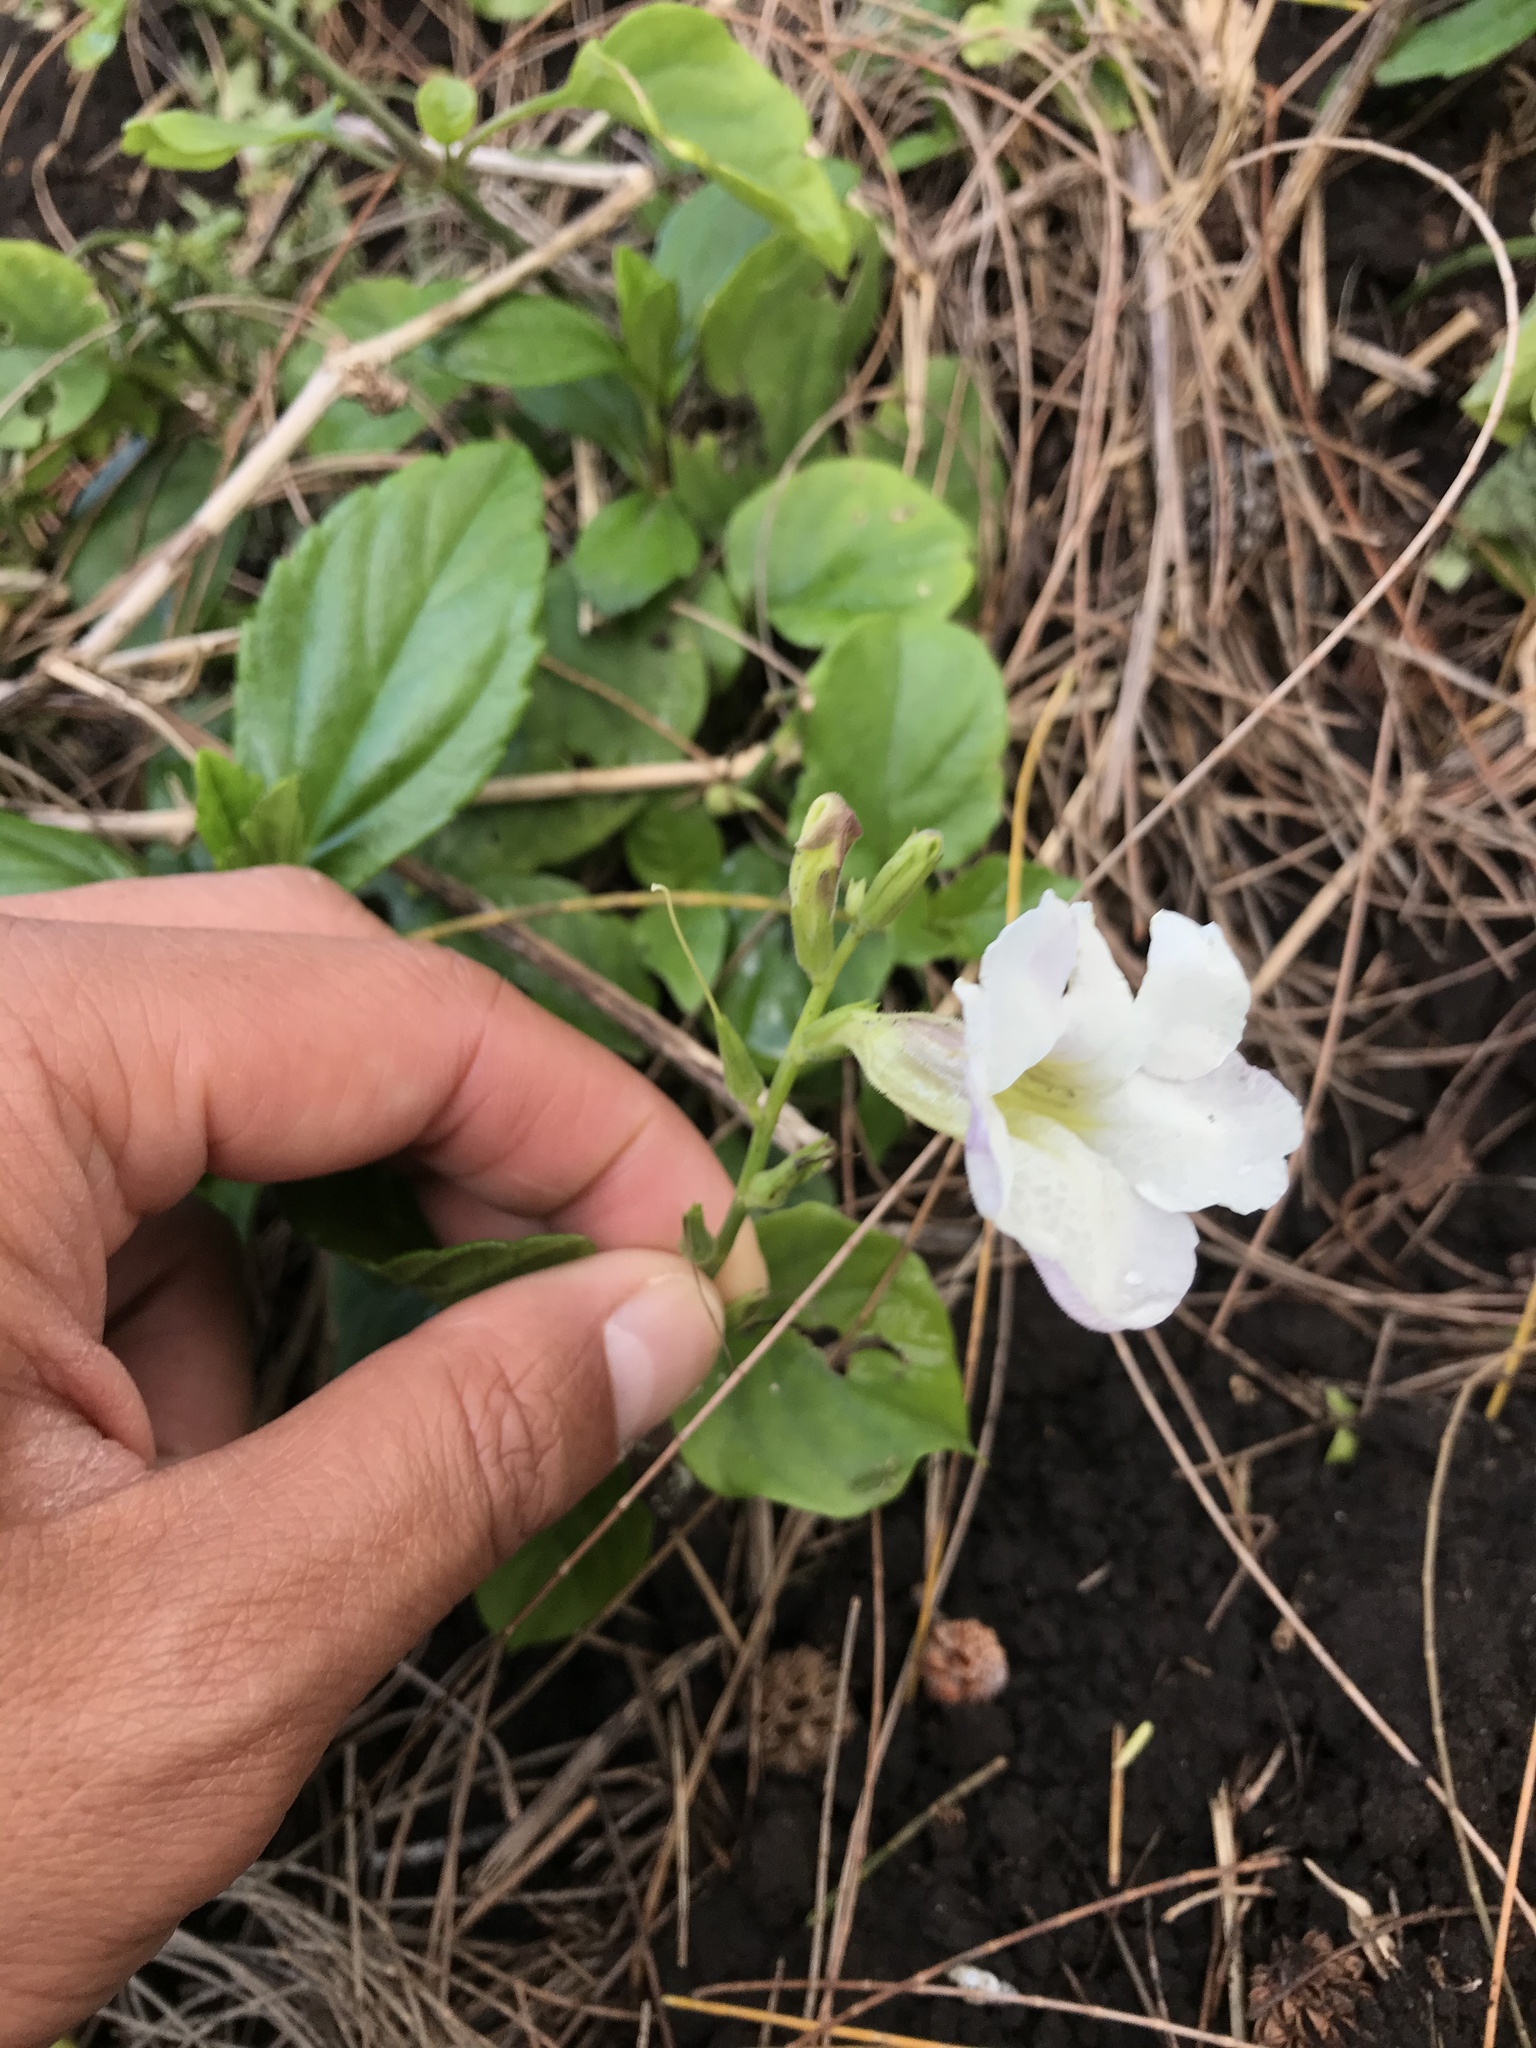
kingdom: Plantae
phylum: Tracheophyta
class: Magnoliopsida
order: Lamiales
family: Acanthaceae
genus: Asystasia
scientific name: Asystasia gangetica
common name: Chinese violet
